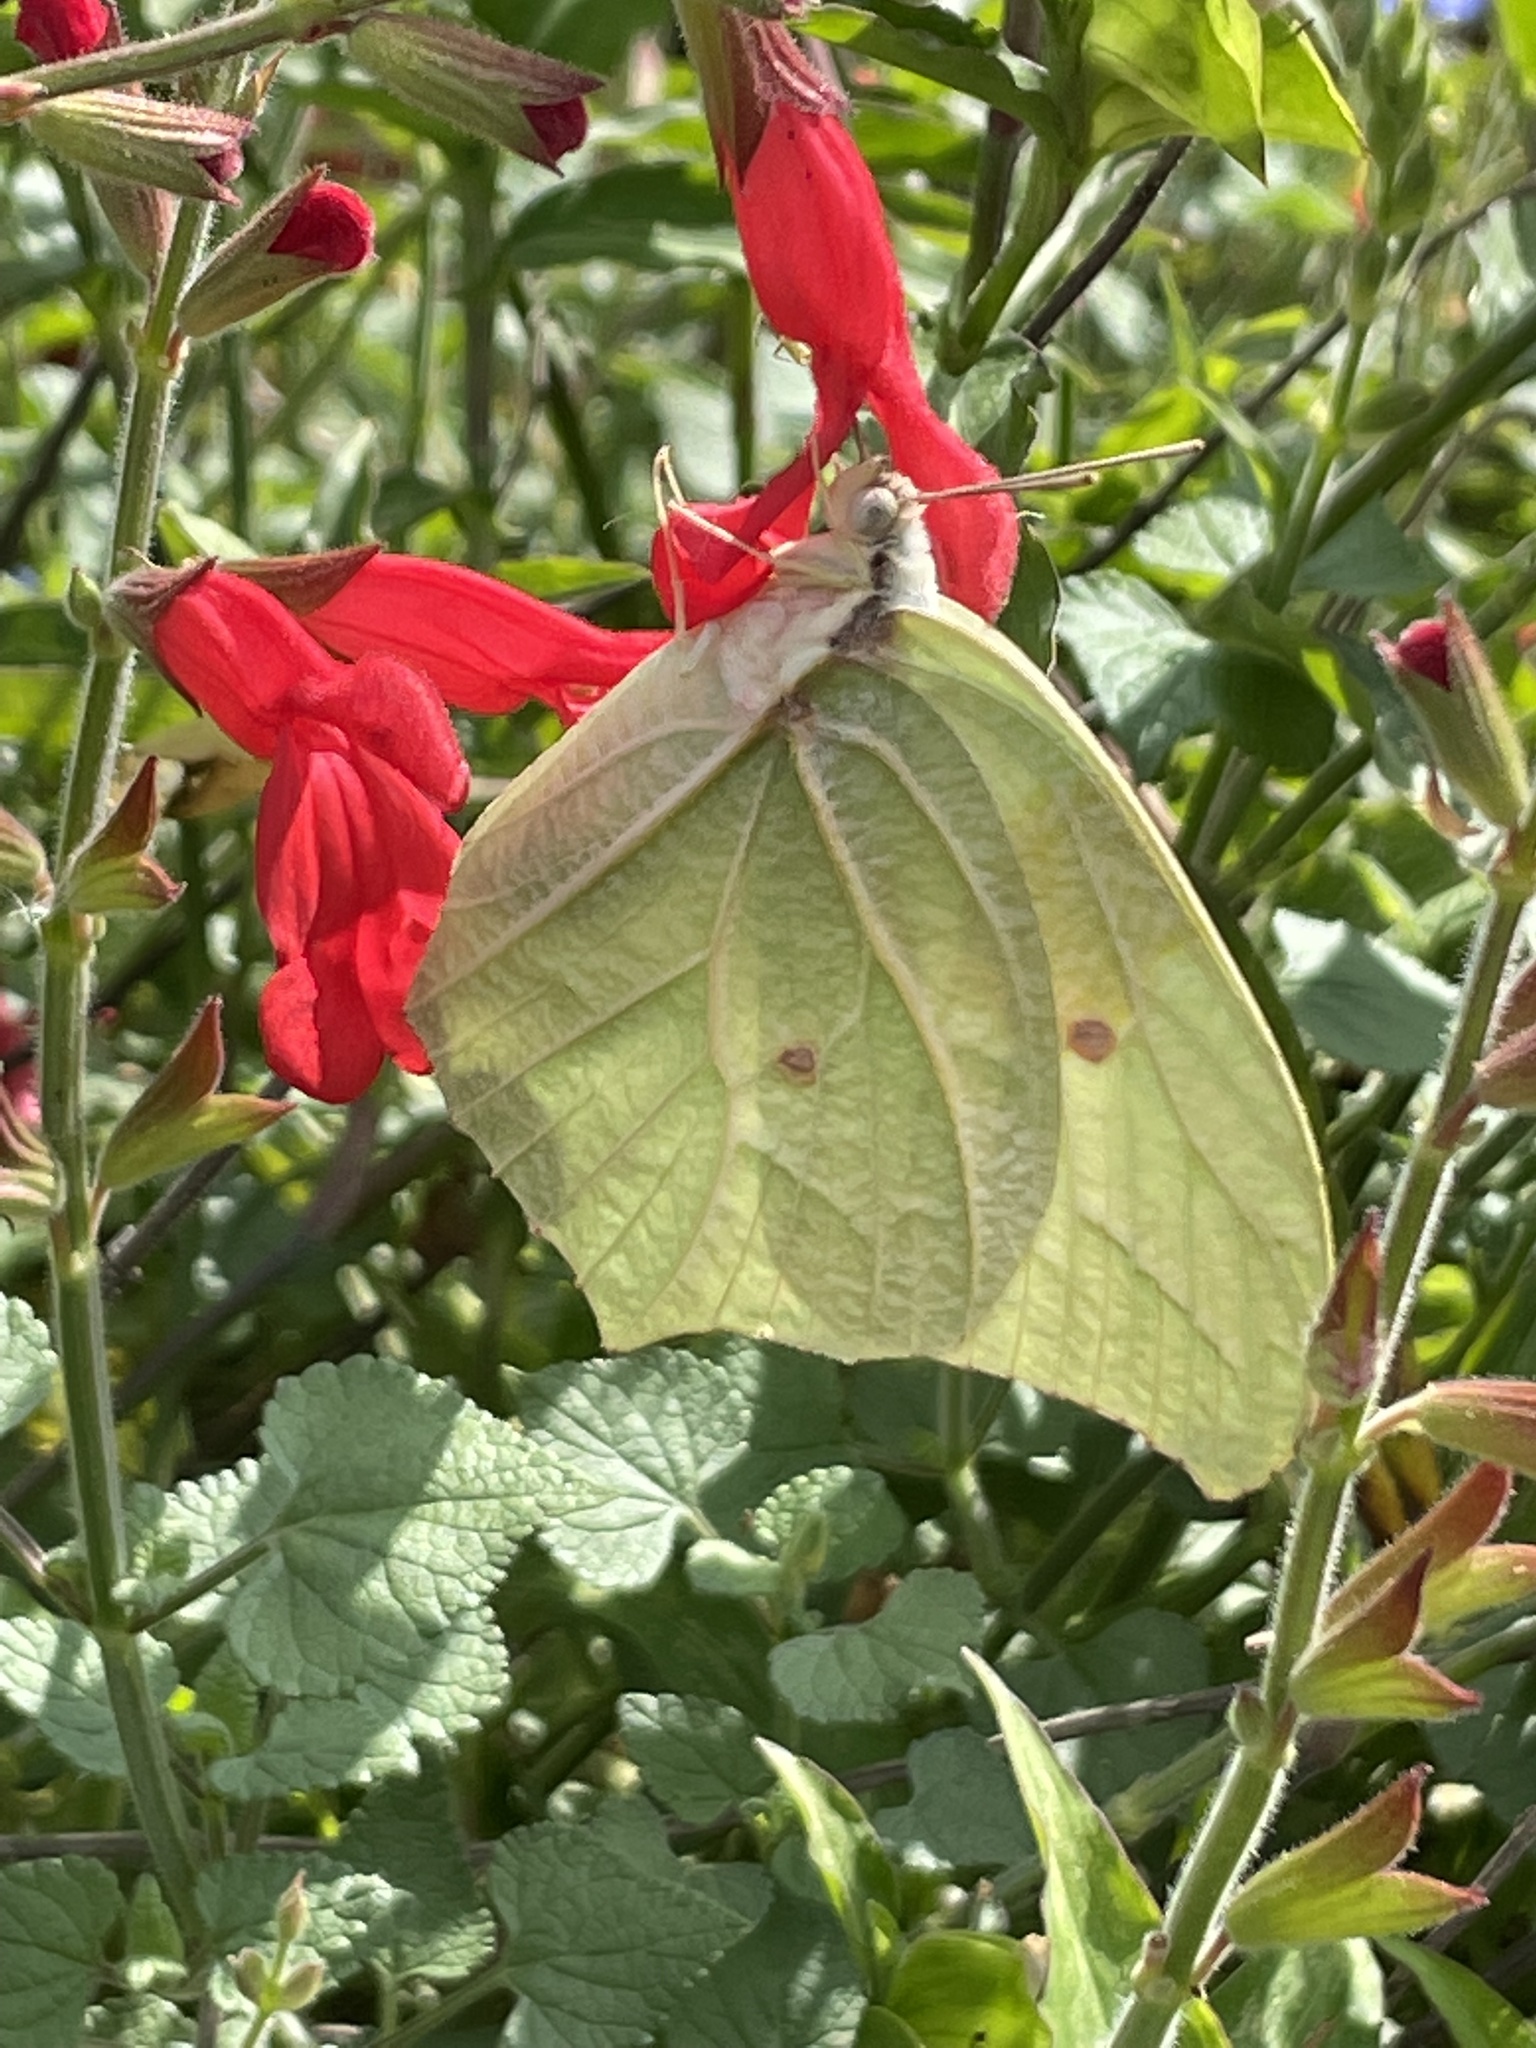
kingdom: Animalia
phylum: Arthropoda
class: Insecta
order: Lepidoptera
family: Pieridae
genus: Anteos
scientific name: Anteos clorinde
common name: White angled sulphur
